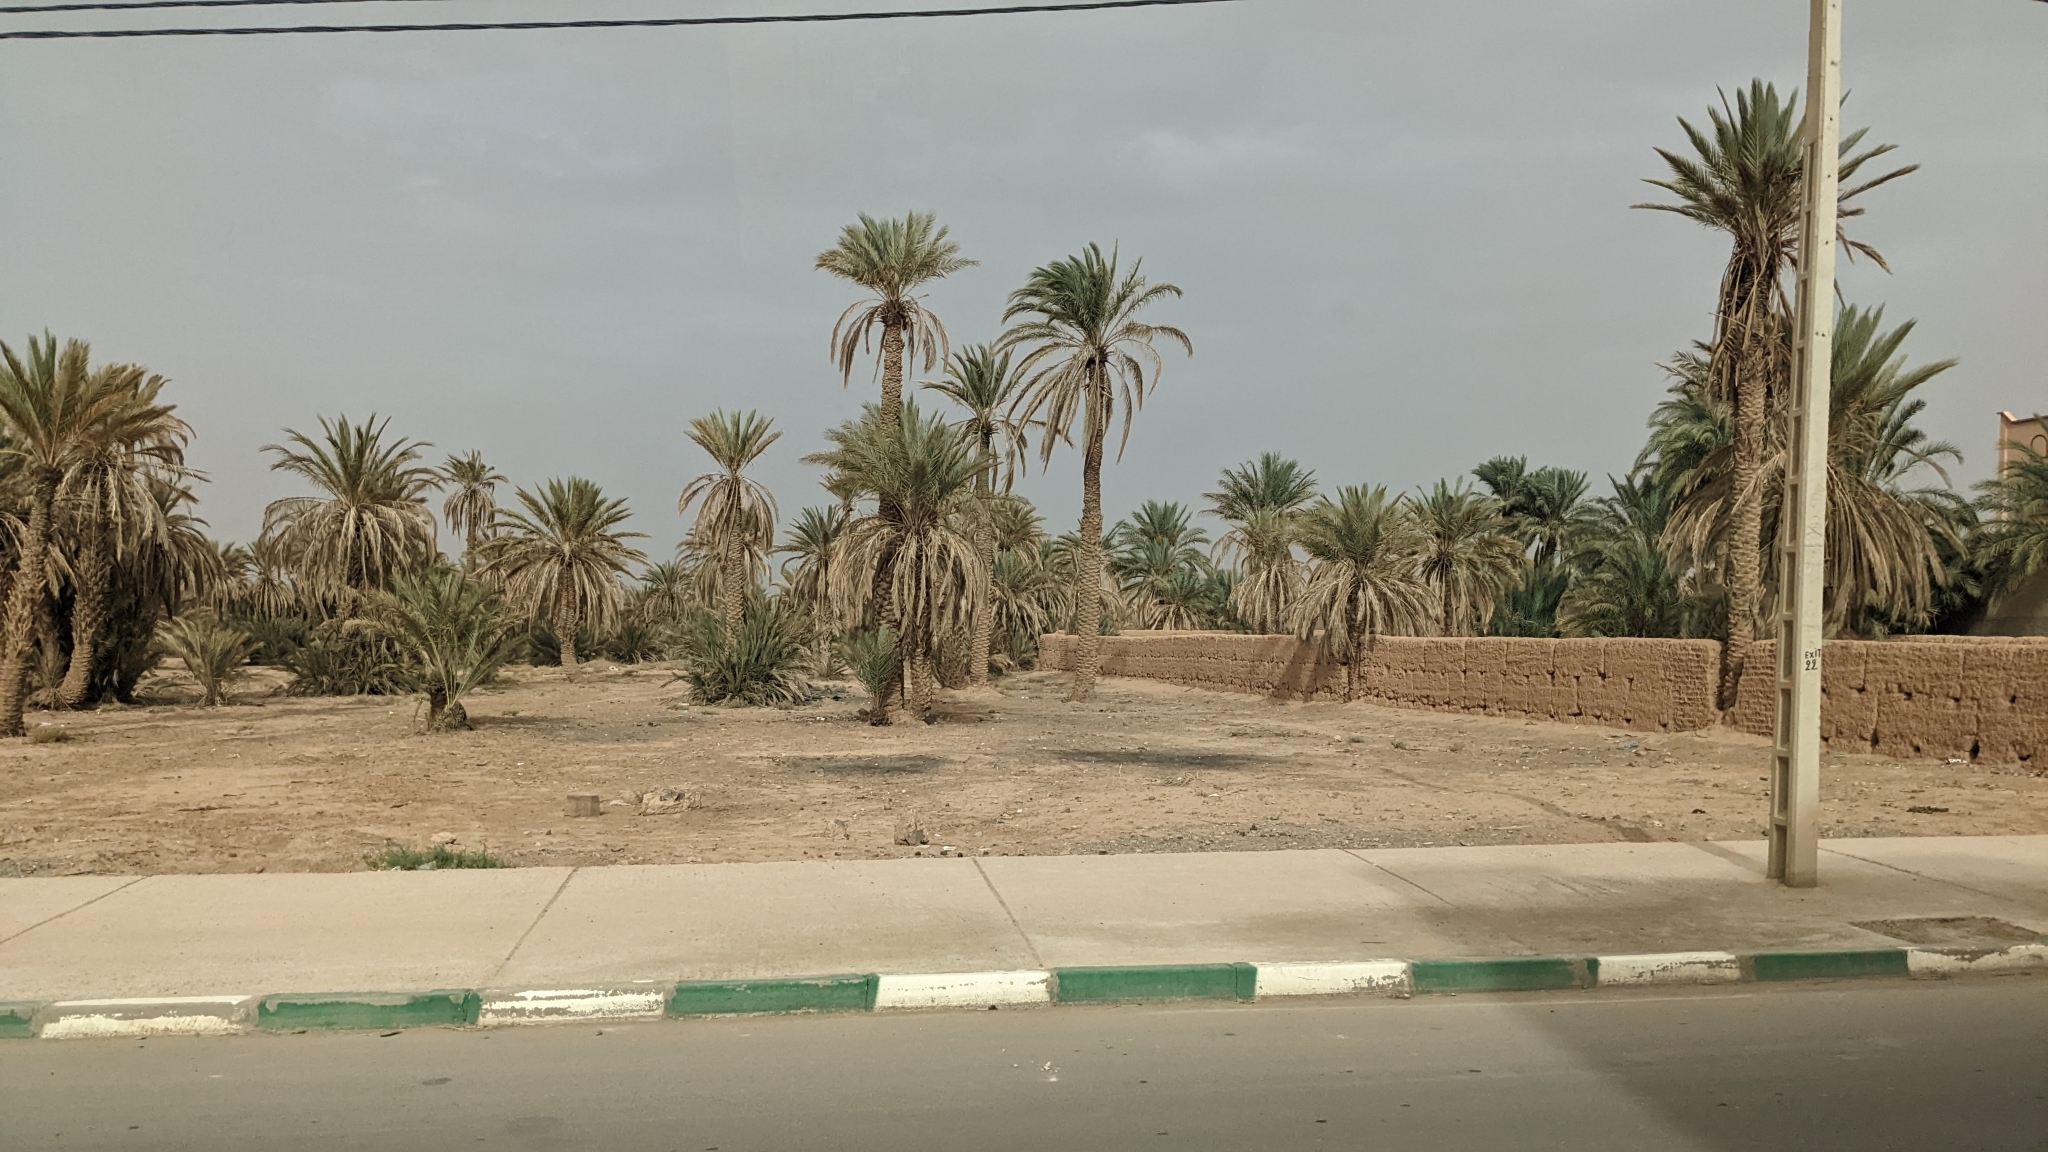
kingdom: Plantae
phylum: Tracheophyta
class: Liliopsida
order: Arecales
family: Arecaceae
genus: Phoenix
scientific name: Phoenix dactylifera
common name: Date palm
